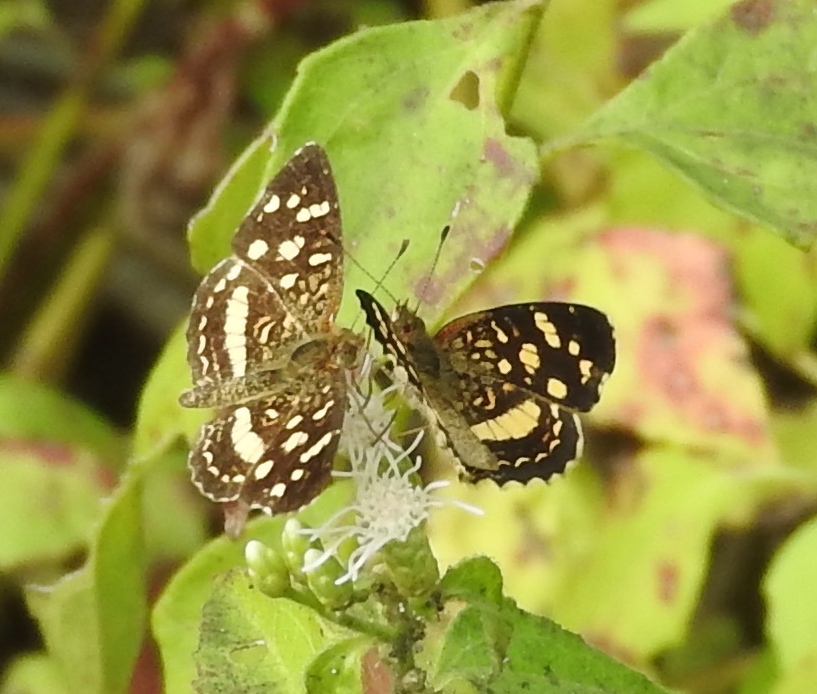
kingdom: Animalia
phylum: Arthropoda
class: Insecta
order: Lepidoptera
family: Nymphalidae
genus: Anthanassa
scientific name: Anthanassa tulcis
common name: Pale-banded crescent
